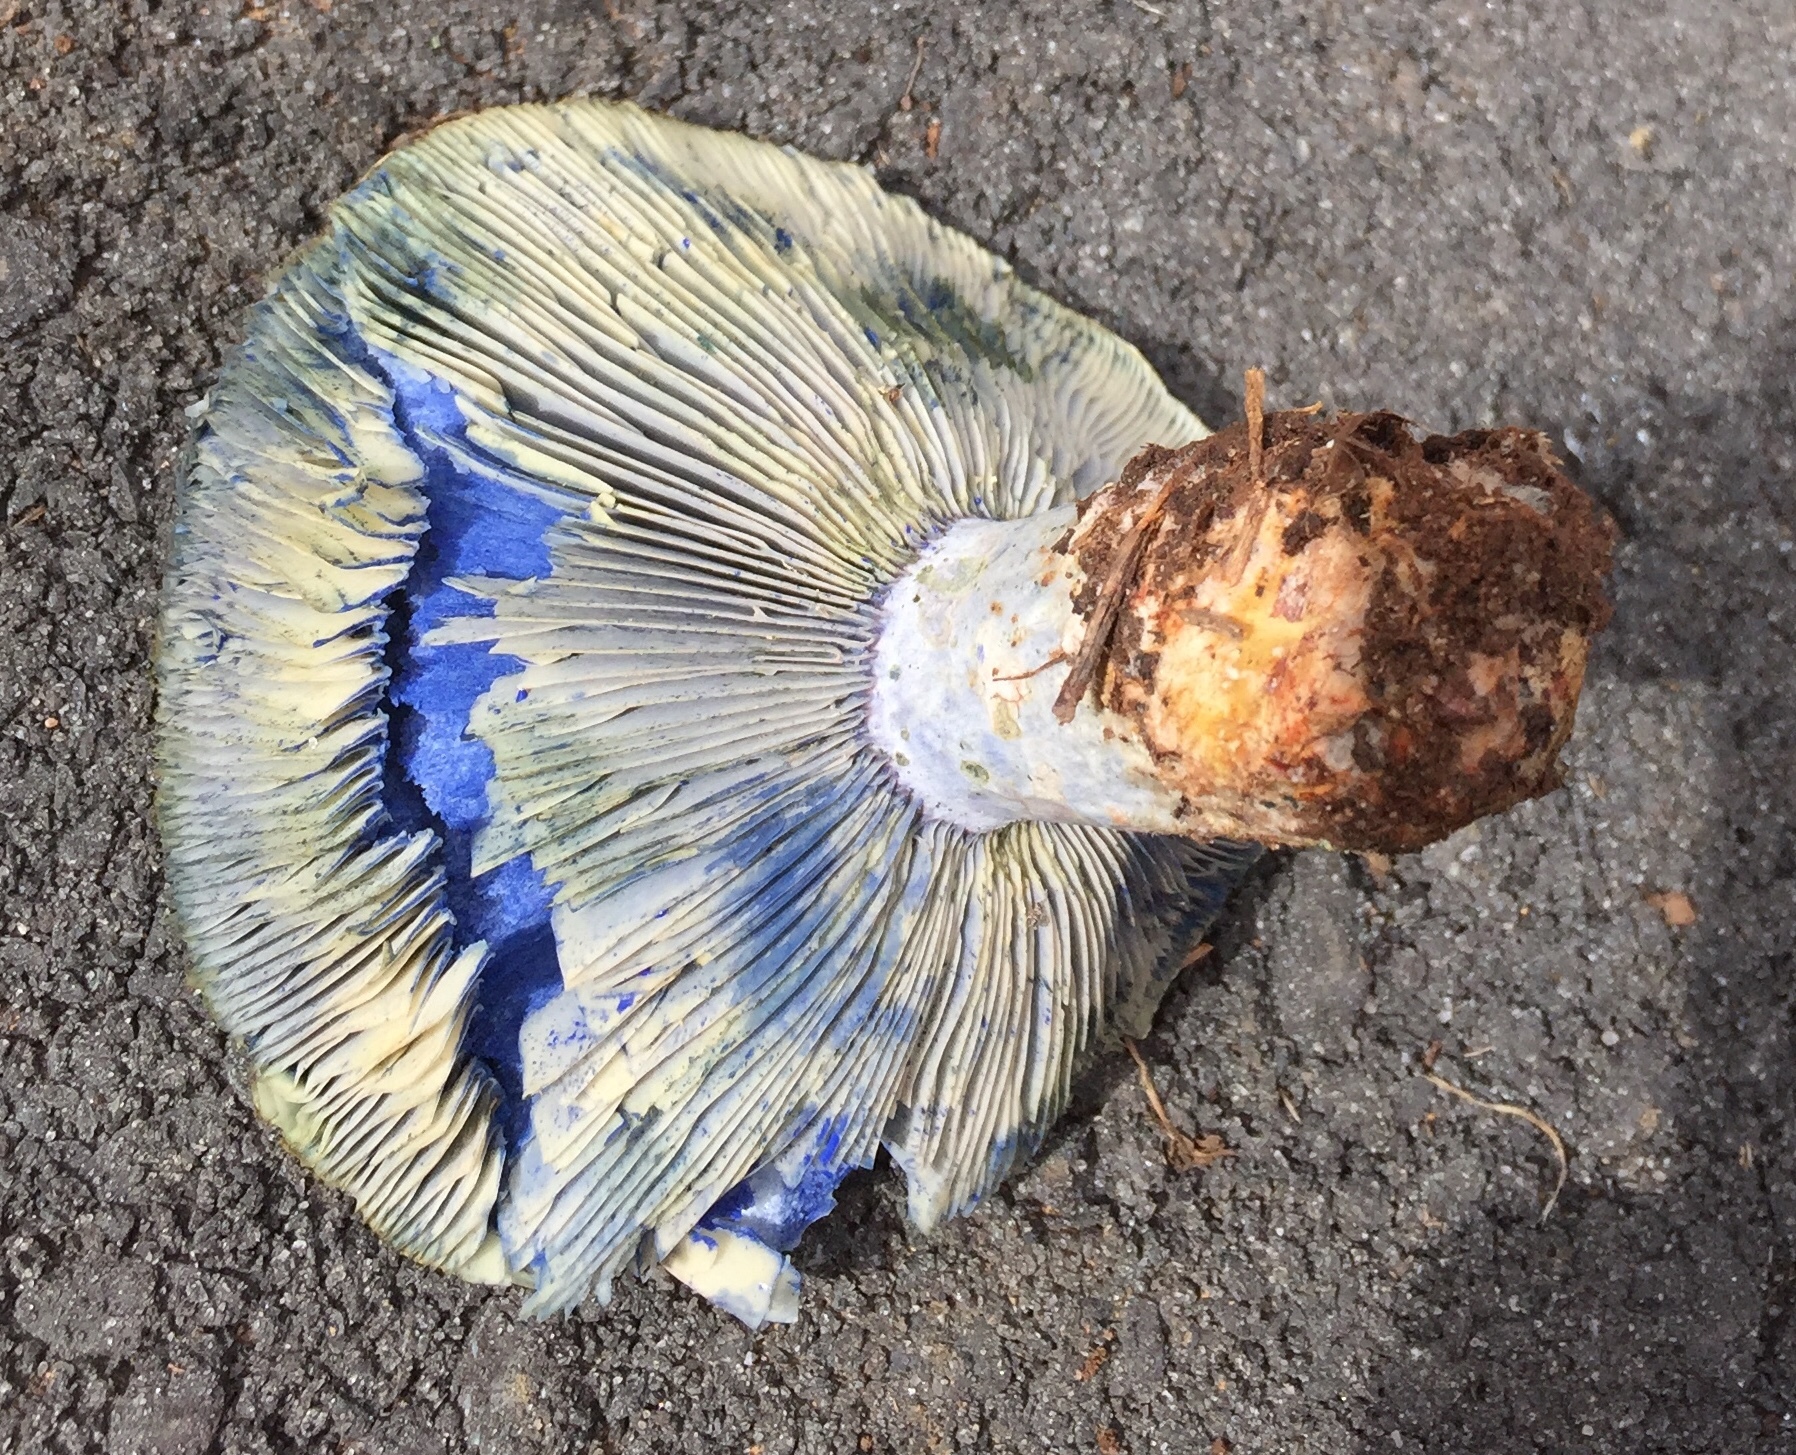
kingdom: Fungi
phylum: Basidiomycota
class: Agaricomycetes
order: Russulales
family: Russulaceae
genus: Lactarius
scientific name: Lactarius indigo
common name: Indigo milk cap
